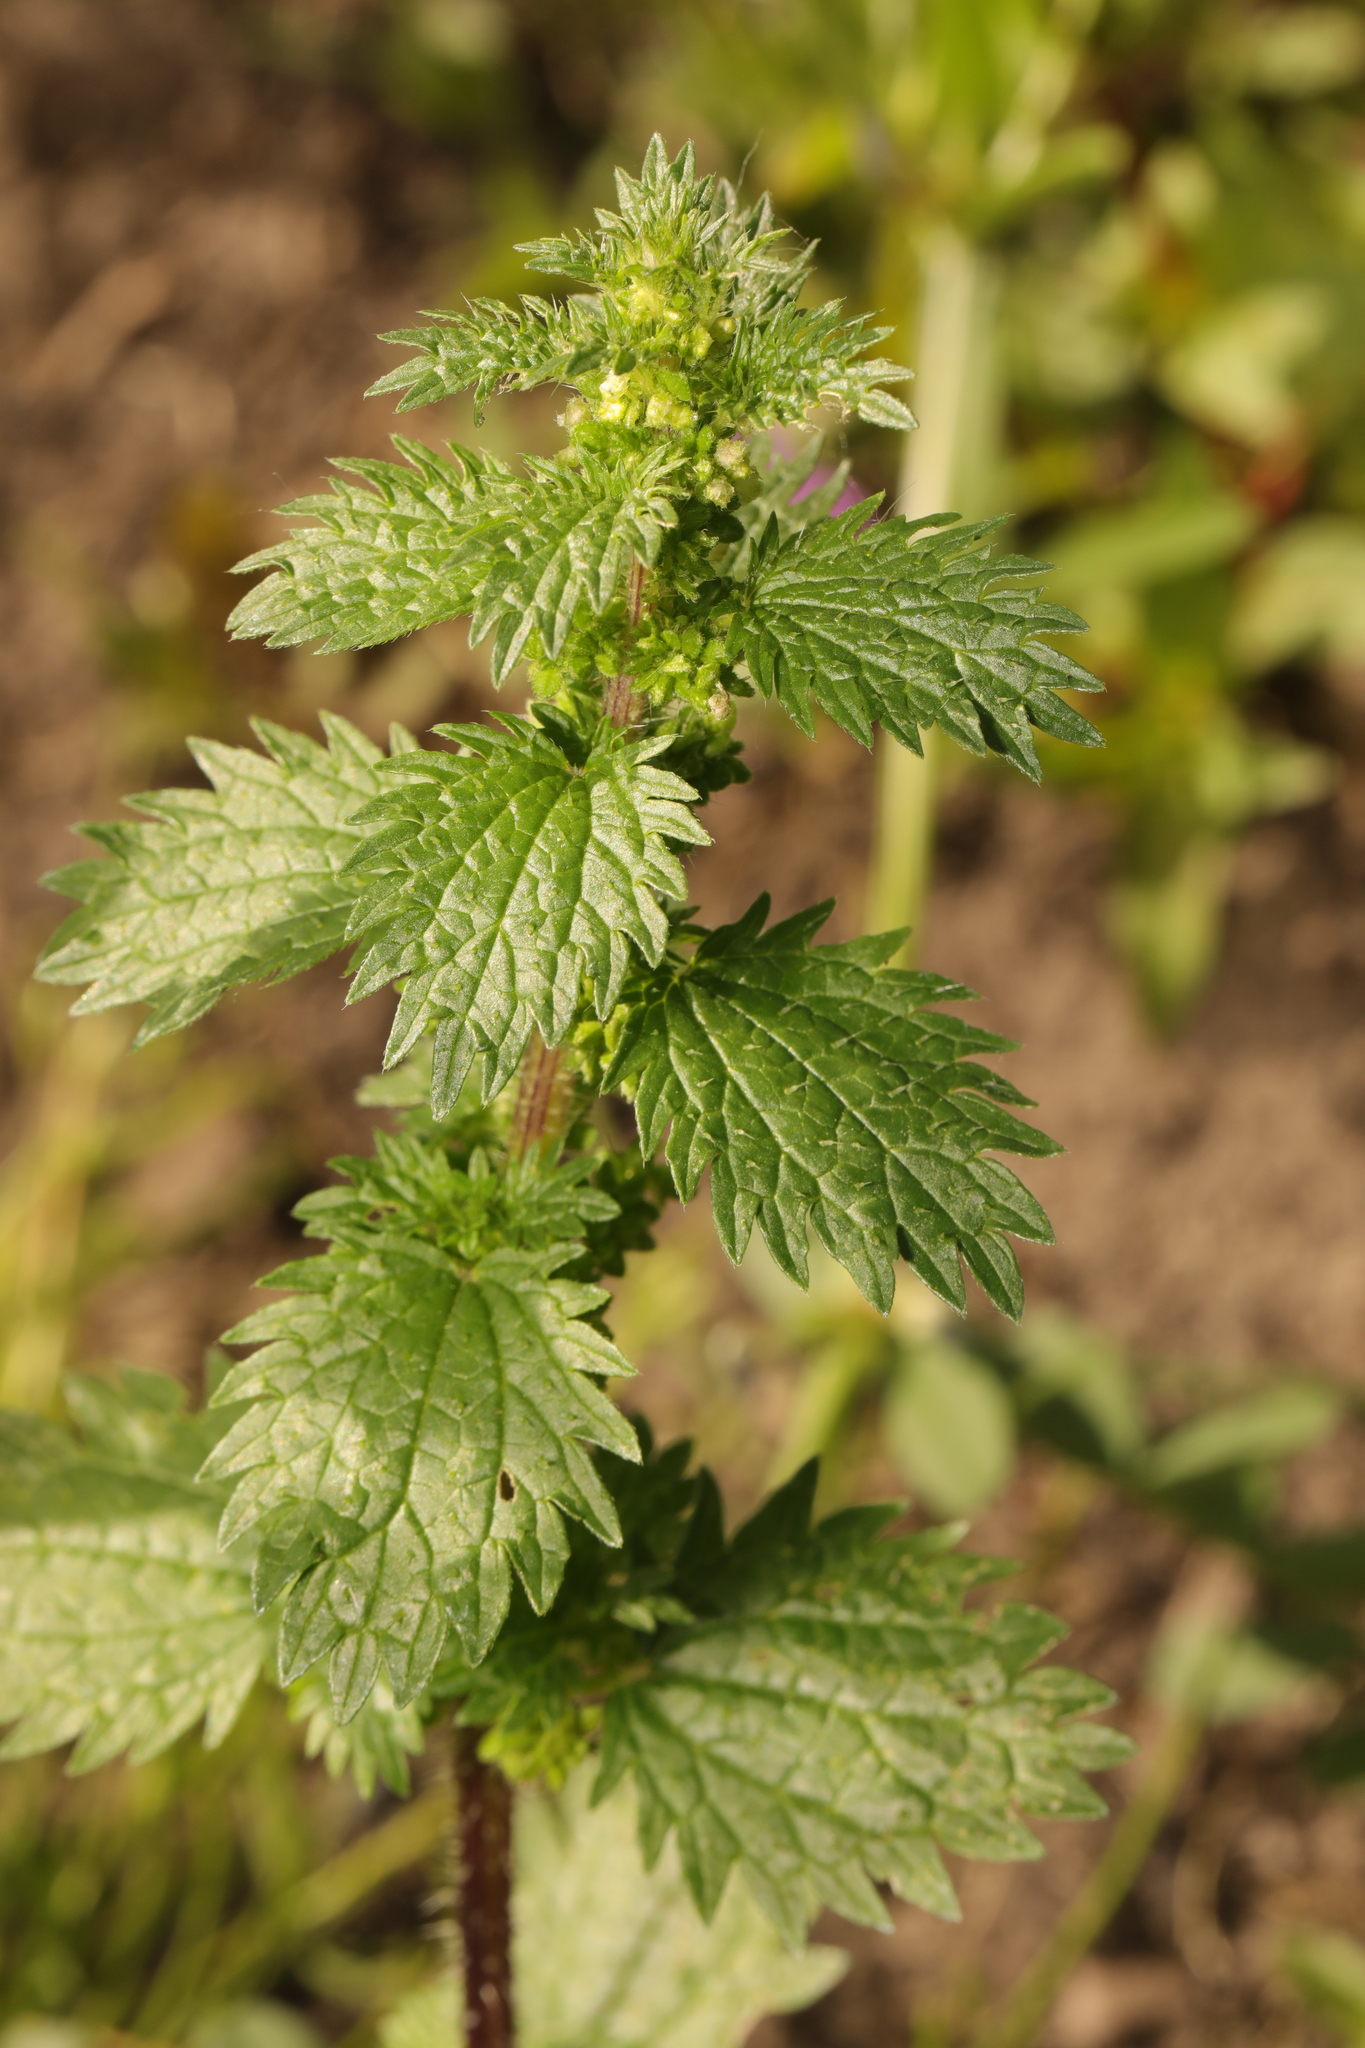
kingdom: Plantae
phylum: Tracheophyta
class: Magnoliopsida
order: Rosales
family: Urticaceae
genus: Urtica
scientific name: Urtica urens
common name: Dwarf nettle
